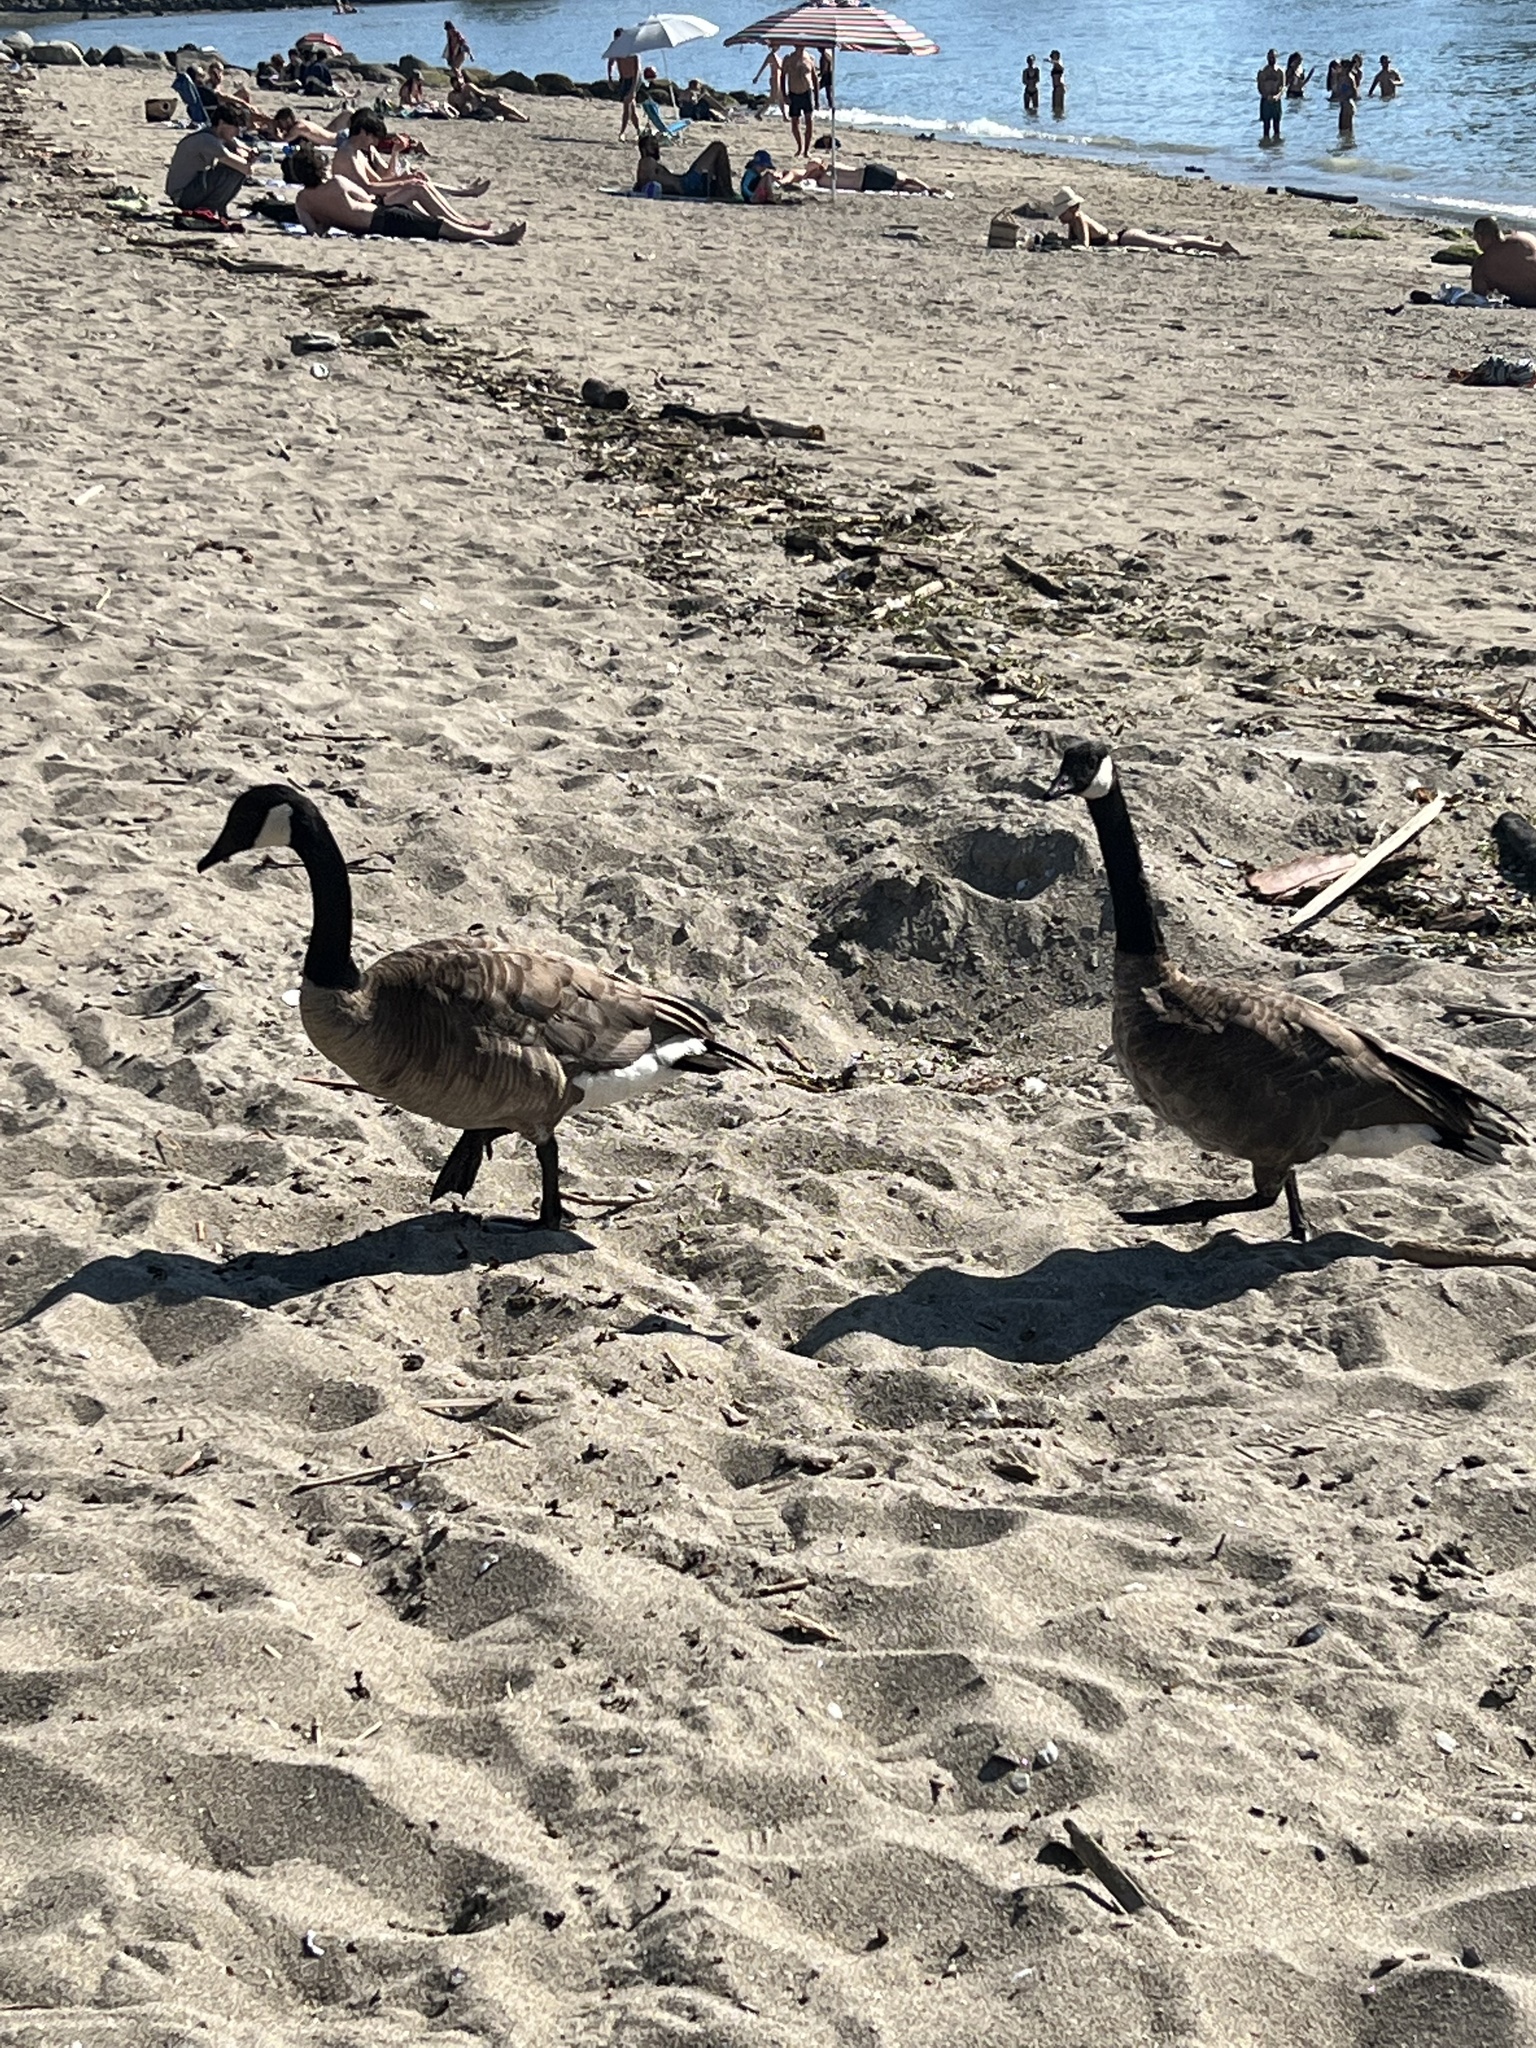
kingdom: Animalia
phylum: Chordata
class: Aves
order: Anseriformes
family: Anatidae
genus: Branta
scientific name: Branta canadensis
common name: Canada goose
